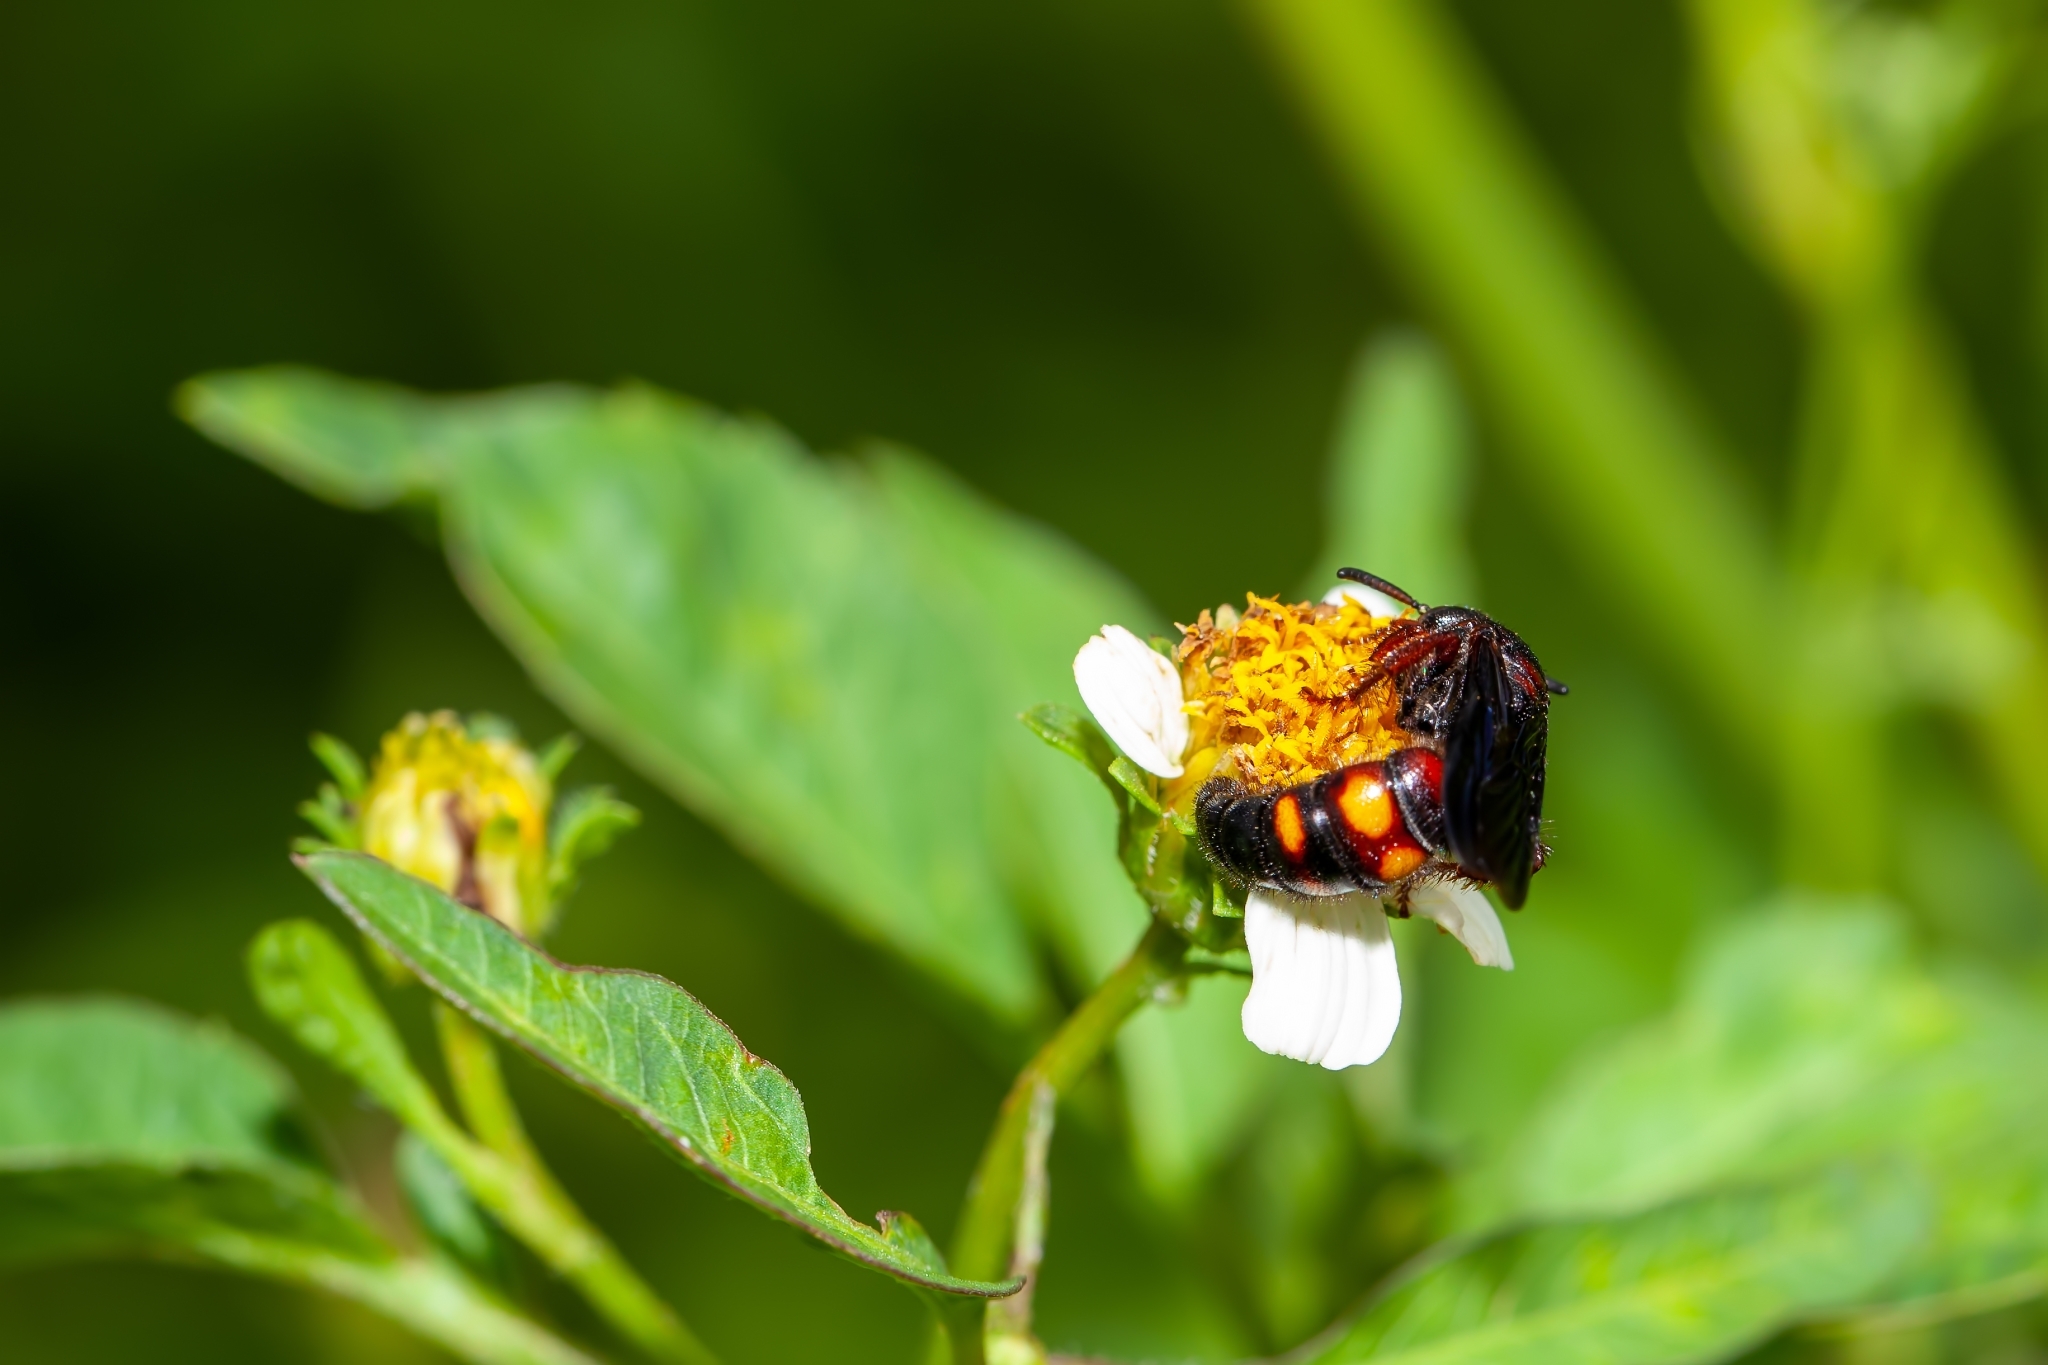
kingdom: Animalia
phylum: Arthropoda
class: Insecta
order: Hymenoptera
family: Scoliidae
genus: Scolia
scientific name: Scolia nobilitata
